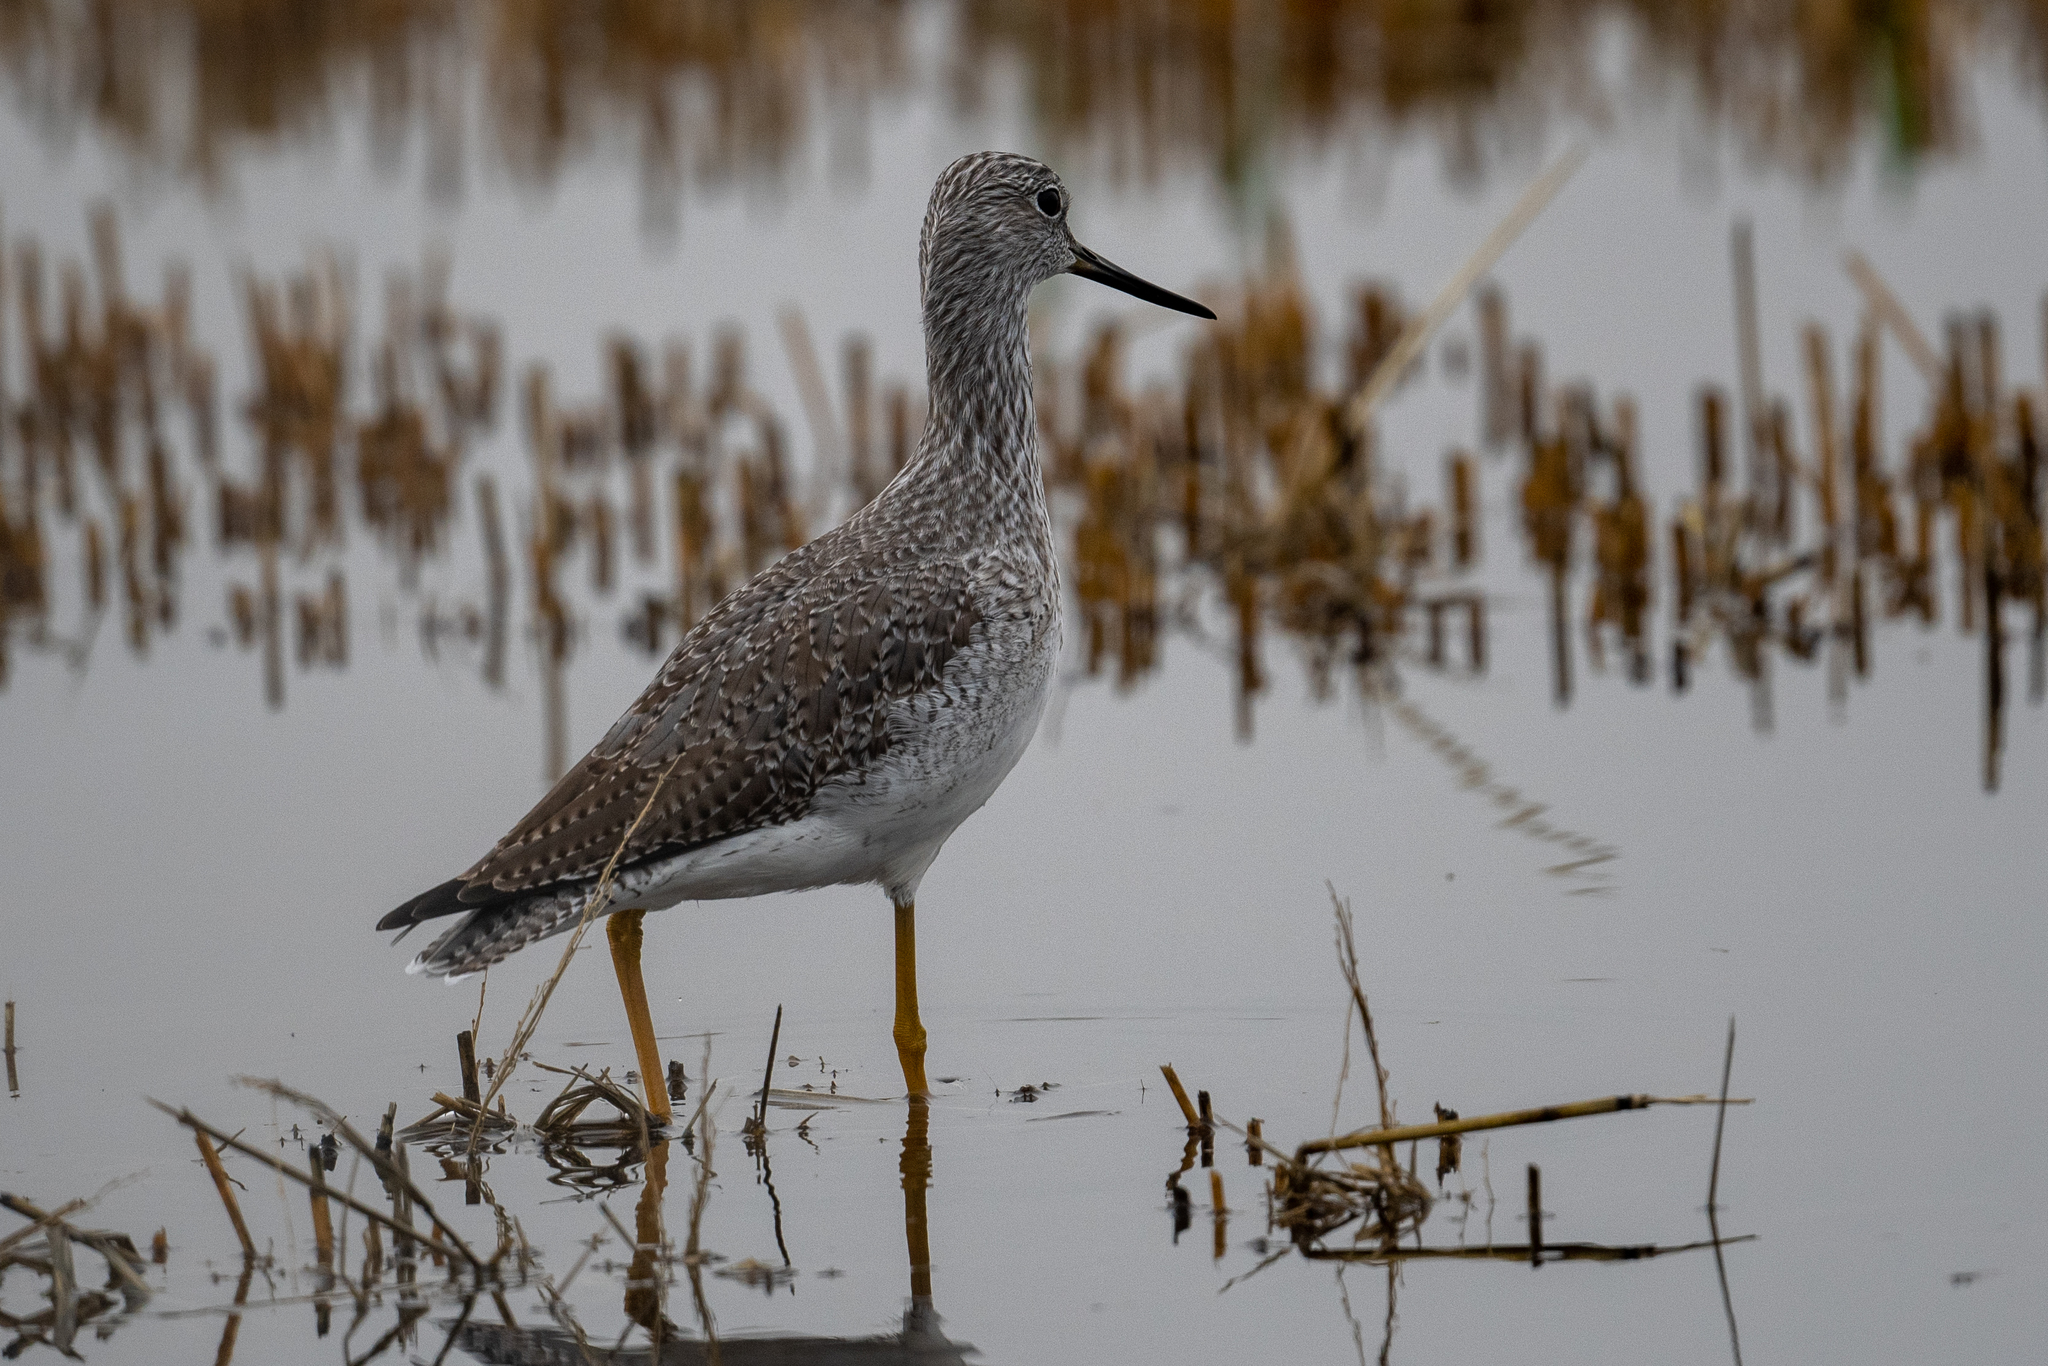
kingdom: Animalia
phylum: Chordata
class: Aves
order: Charadriiformes
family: Scolopacidae
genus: Tringa
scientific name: Tringa melanoleuca
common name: Greater yellowlegs
